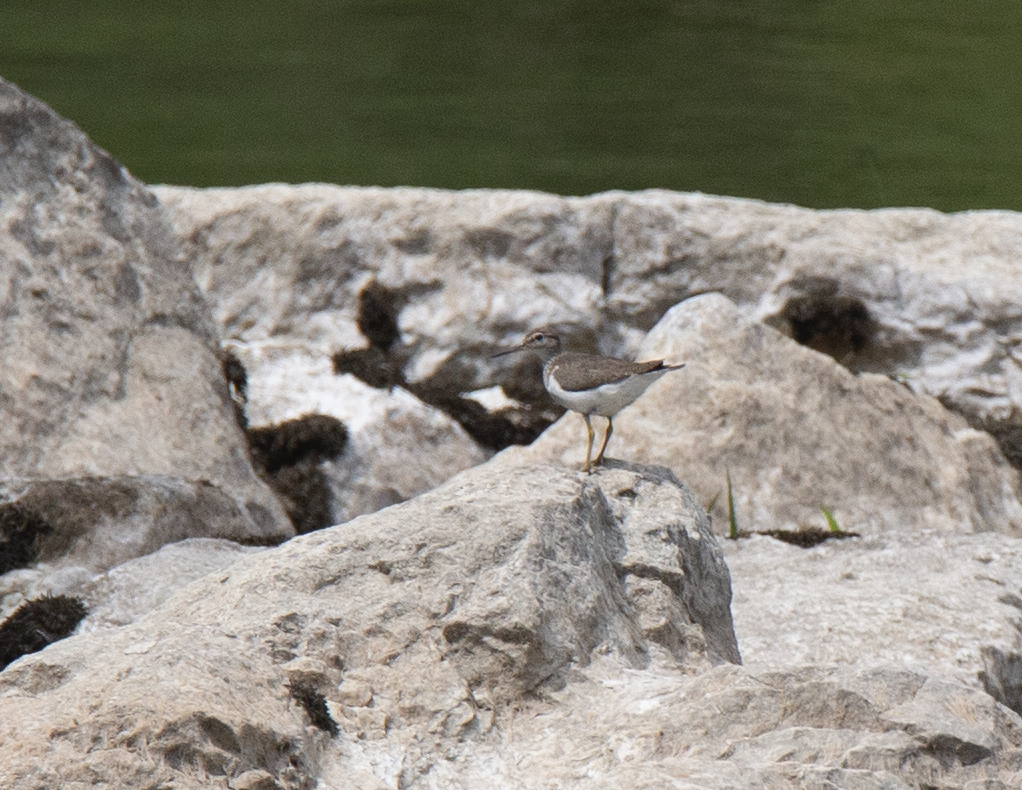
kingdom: Animalia
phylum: Chordata
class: Aves
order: Charadriiformes
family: Scolopacidae
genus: Actitis
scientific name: Actitis hypoleucos
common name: Common sandpiper
